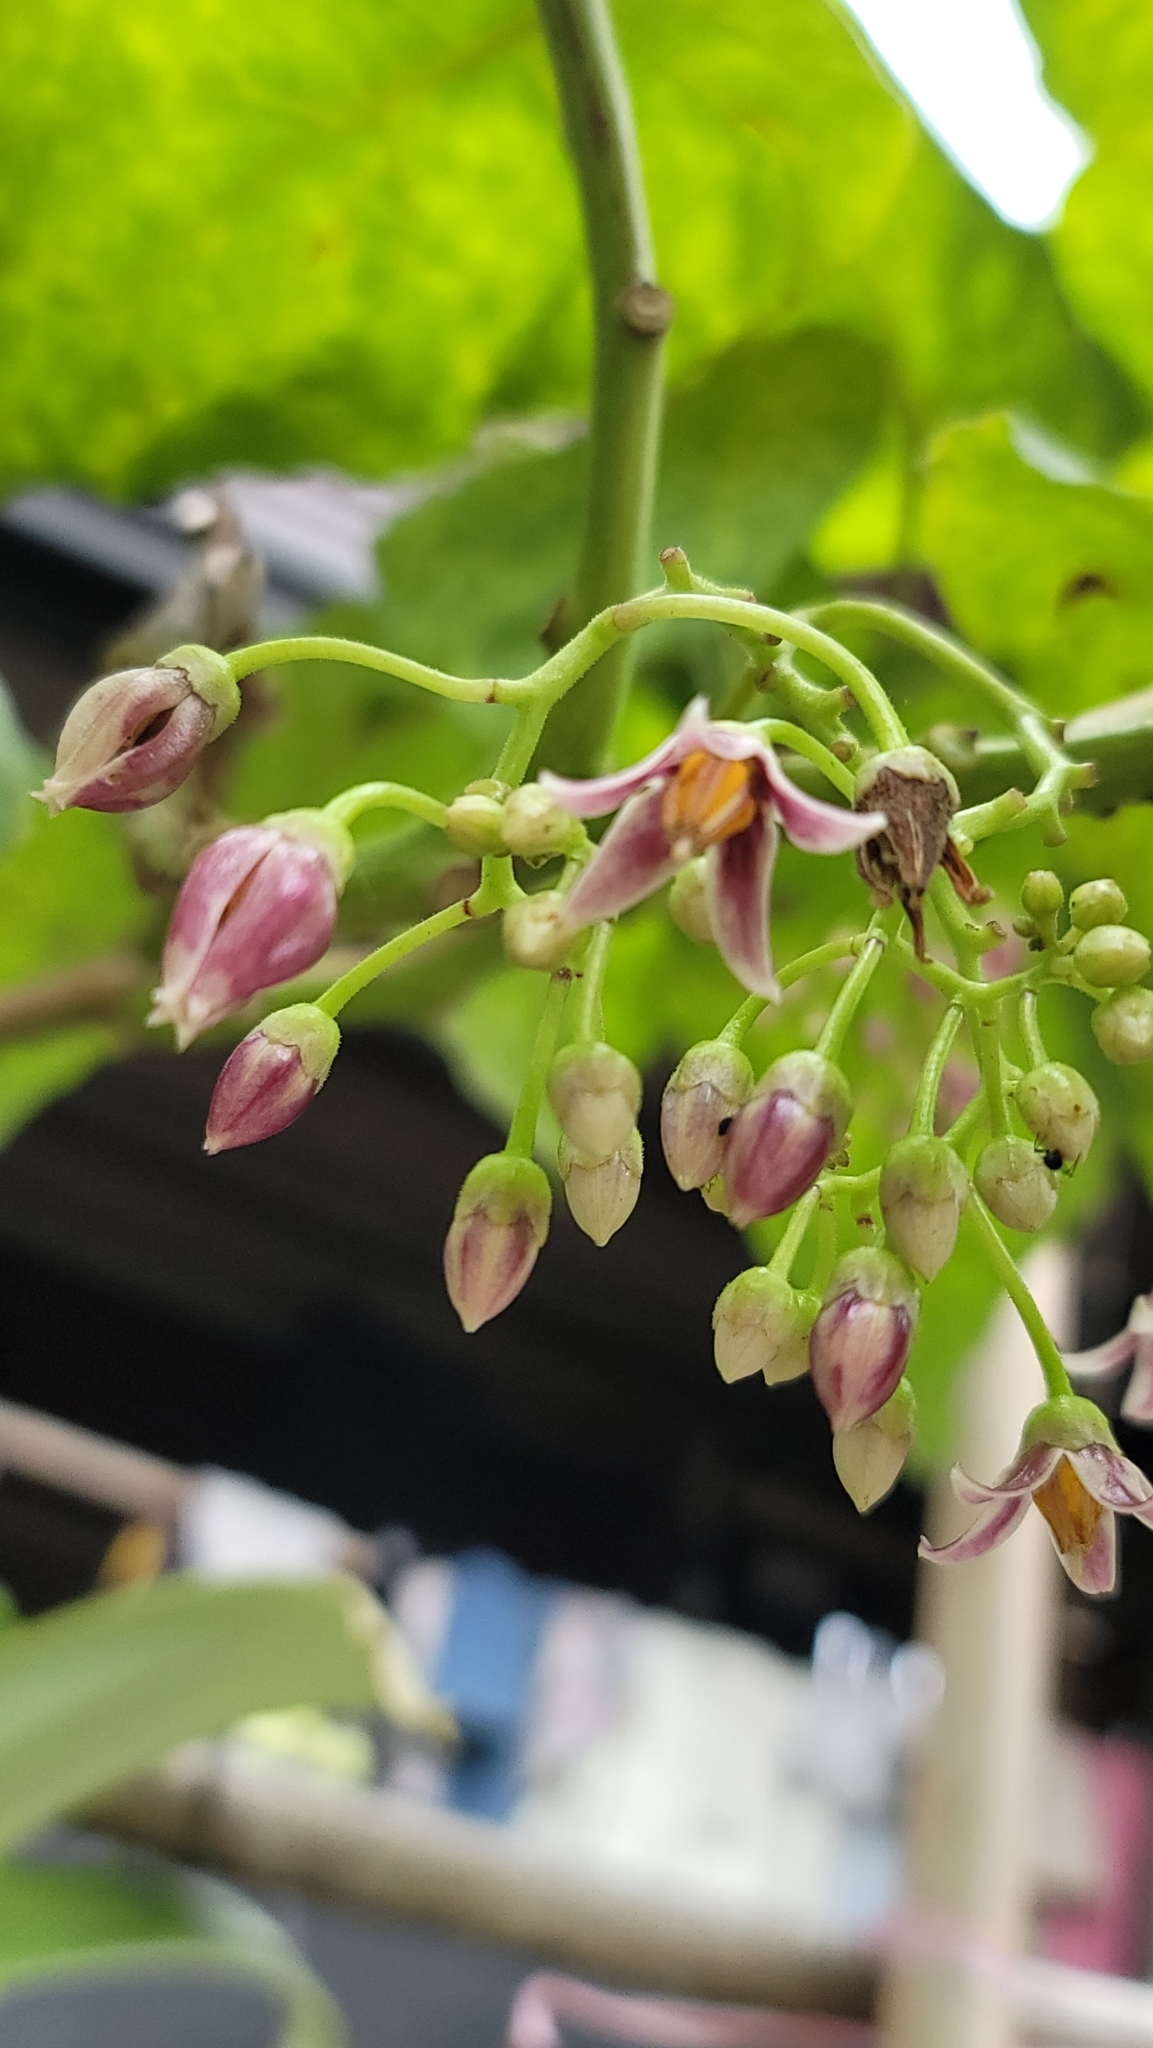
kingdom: Plantae
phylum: Tracheophyta
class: Magnoliopsida
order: Solanales
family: Solanaceae
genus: Solanum
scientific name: Solanum betaceum
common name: Tamarillo
